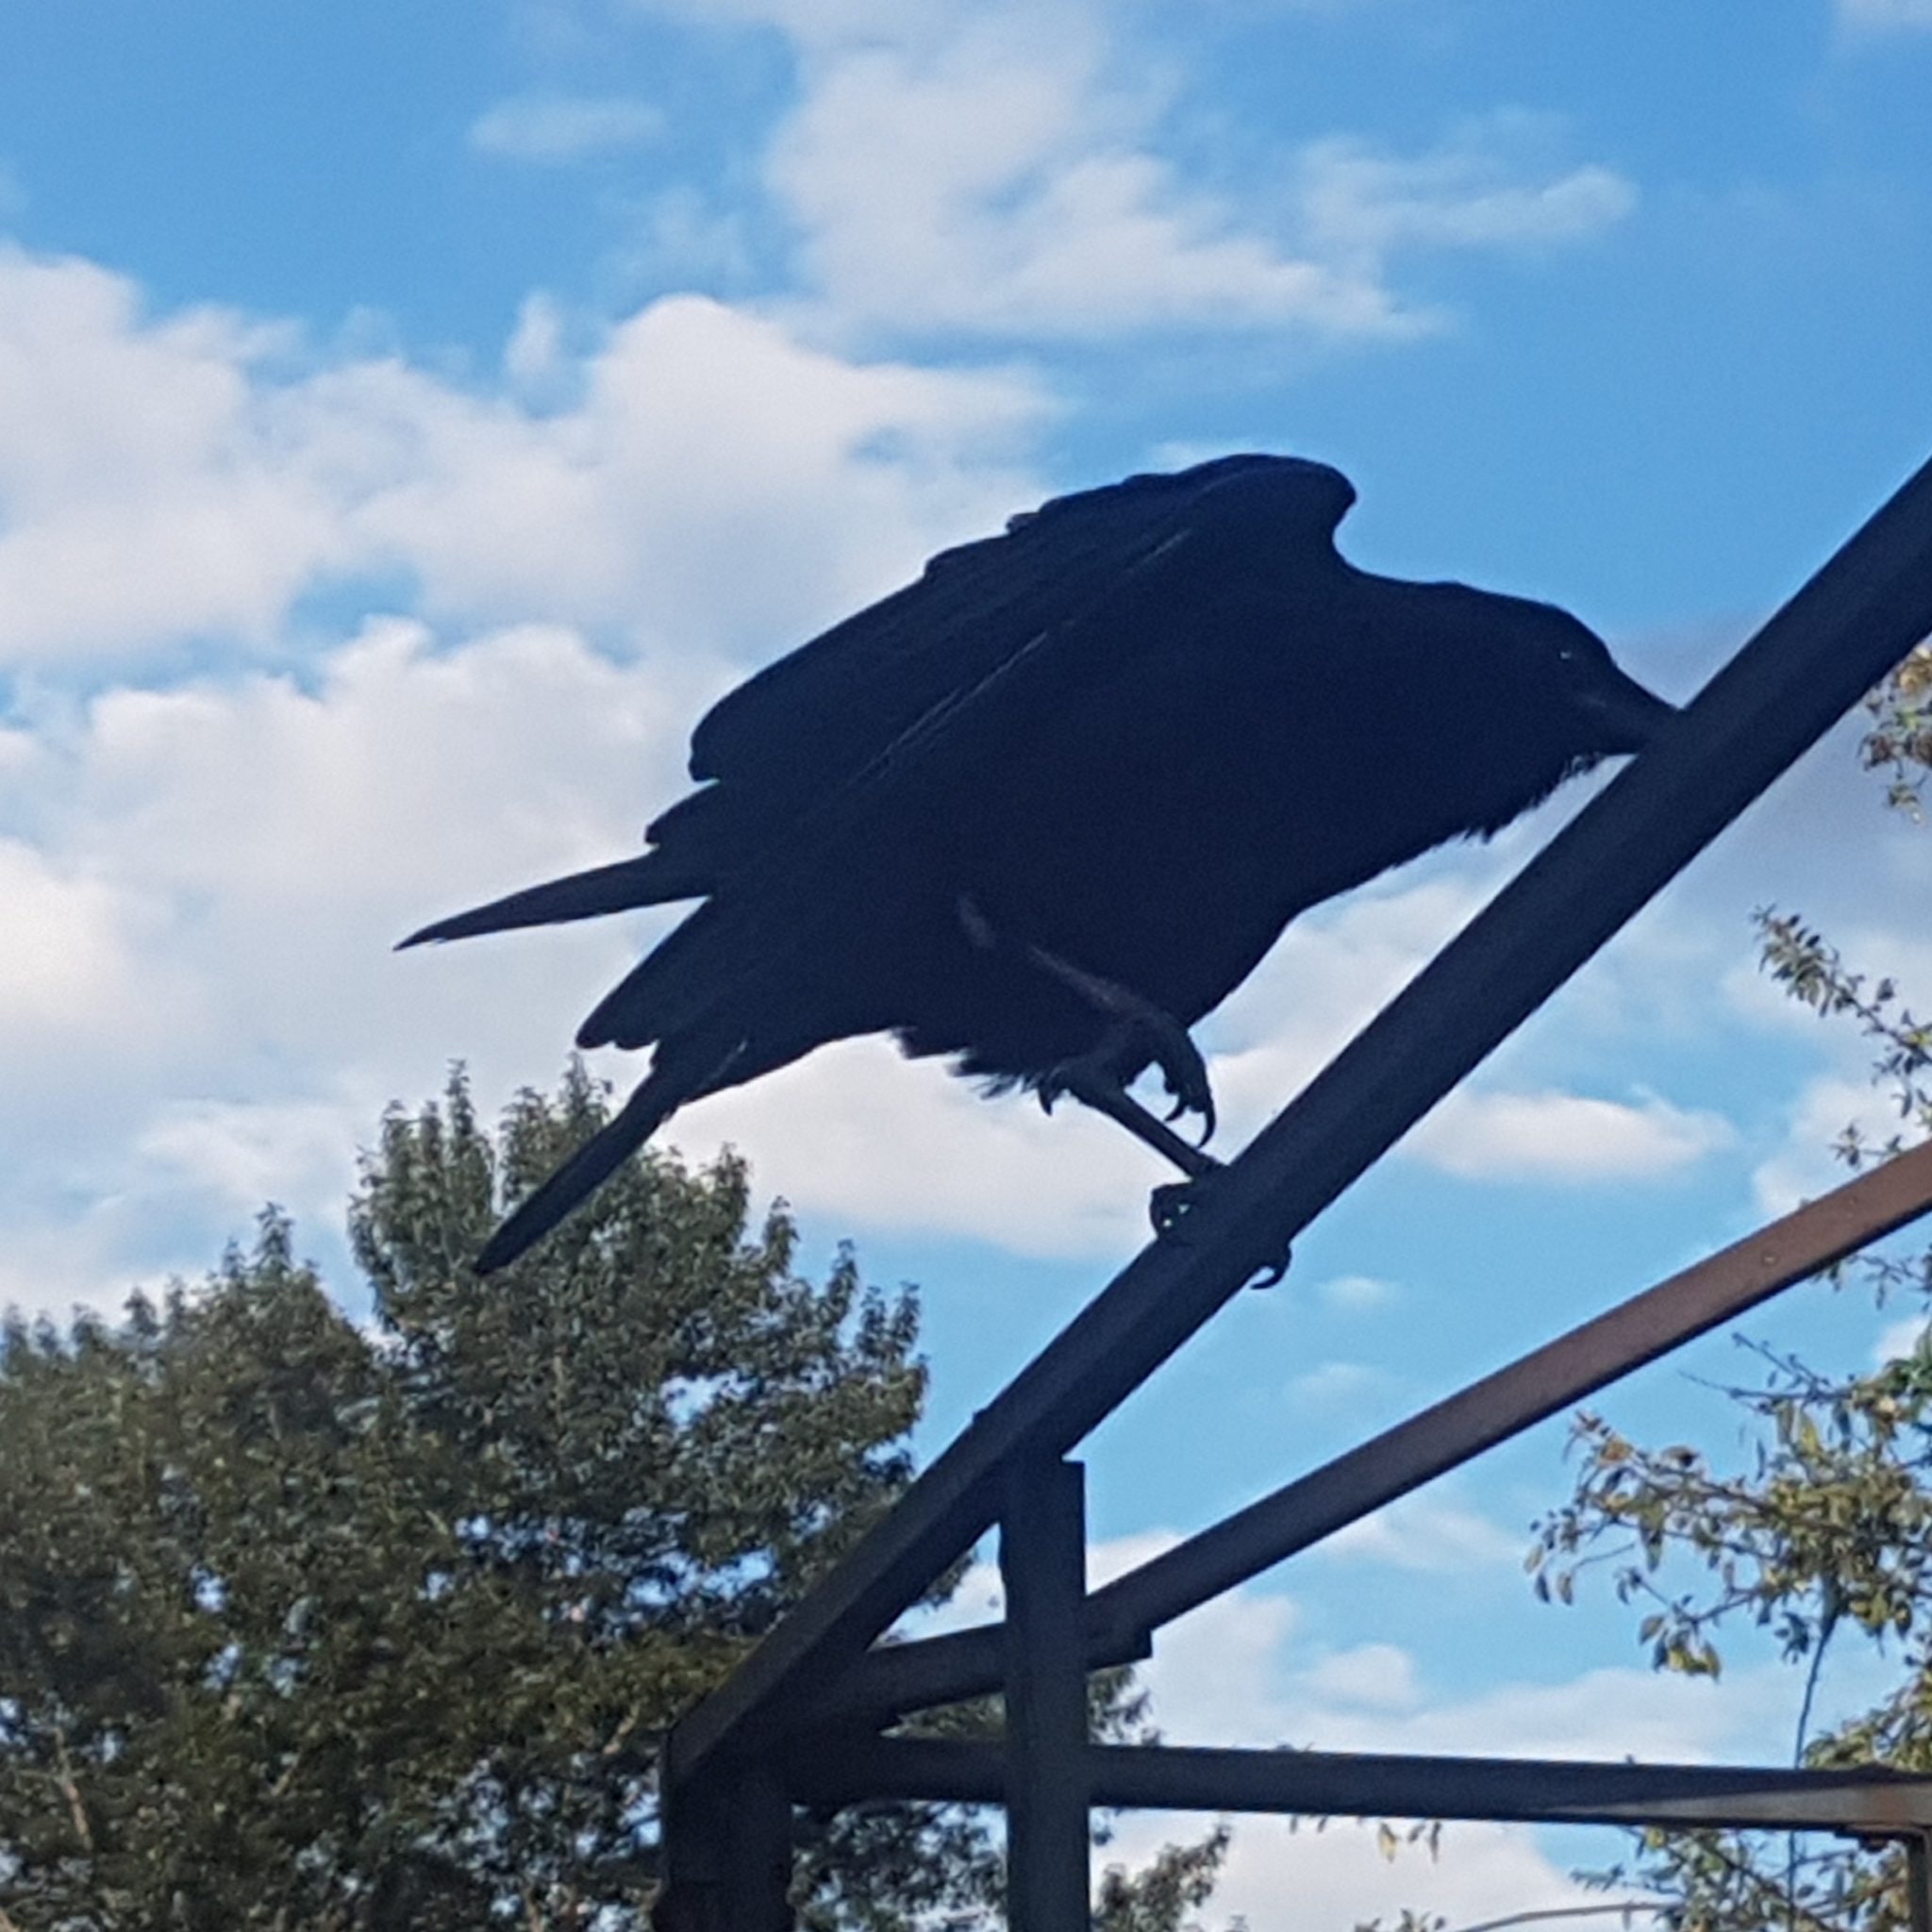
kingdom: Animalia
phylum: Chordata
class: Aves
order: Passeriformes
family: Corvidae
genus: Corvus
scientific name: Corvus brachyrhynchos
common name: American crow
